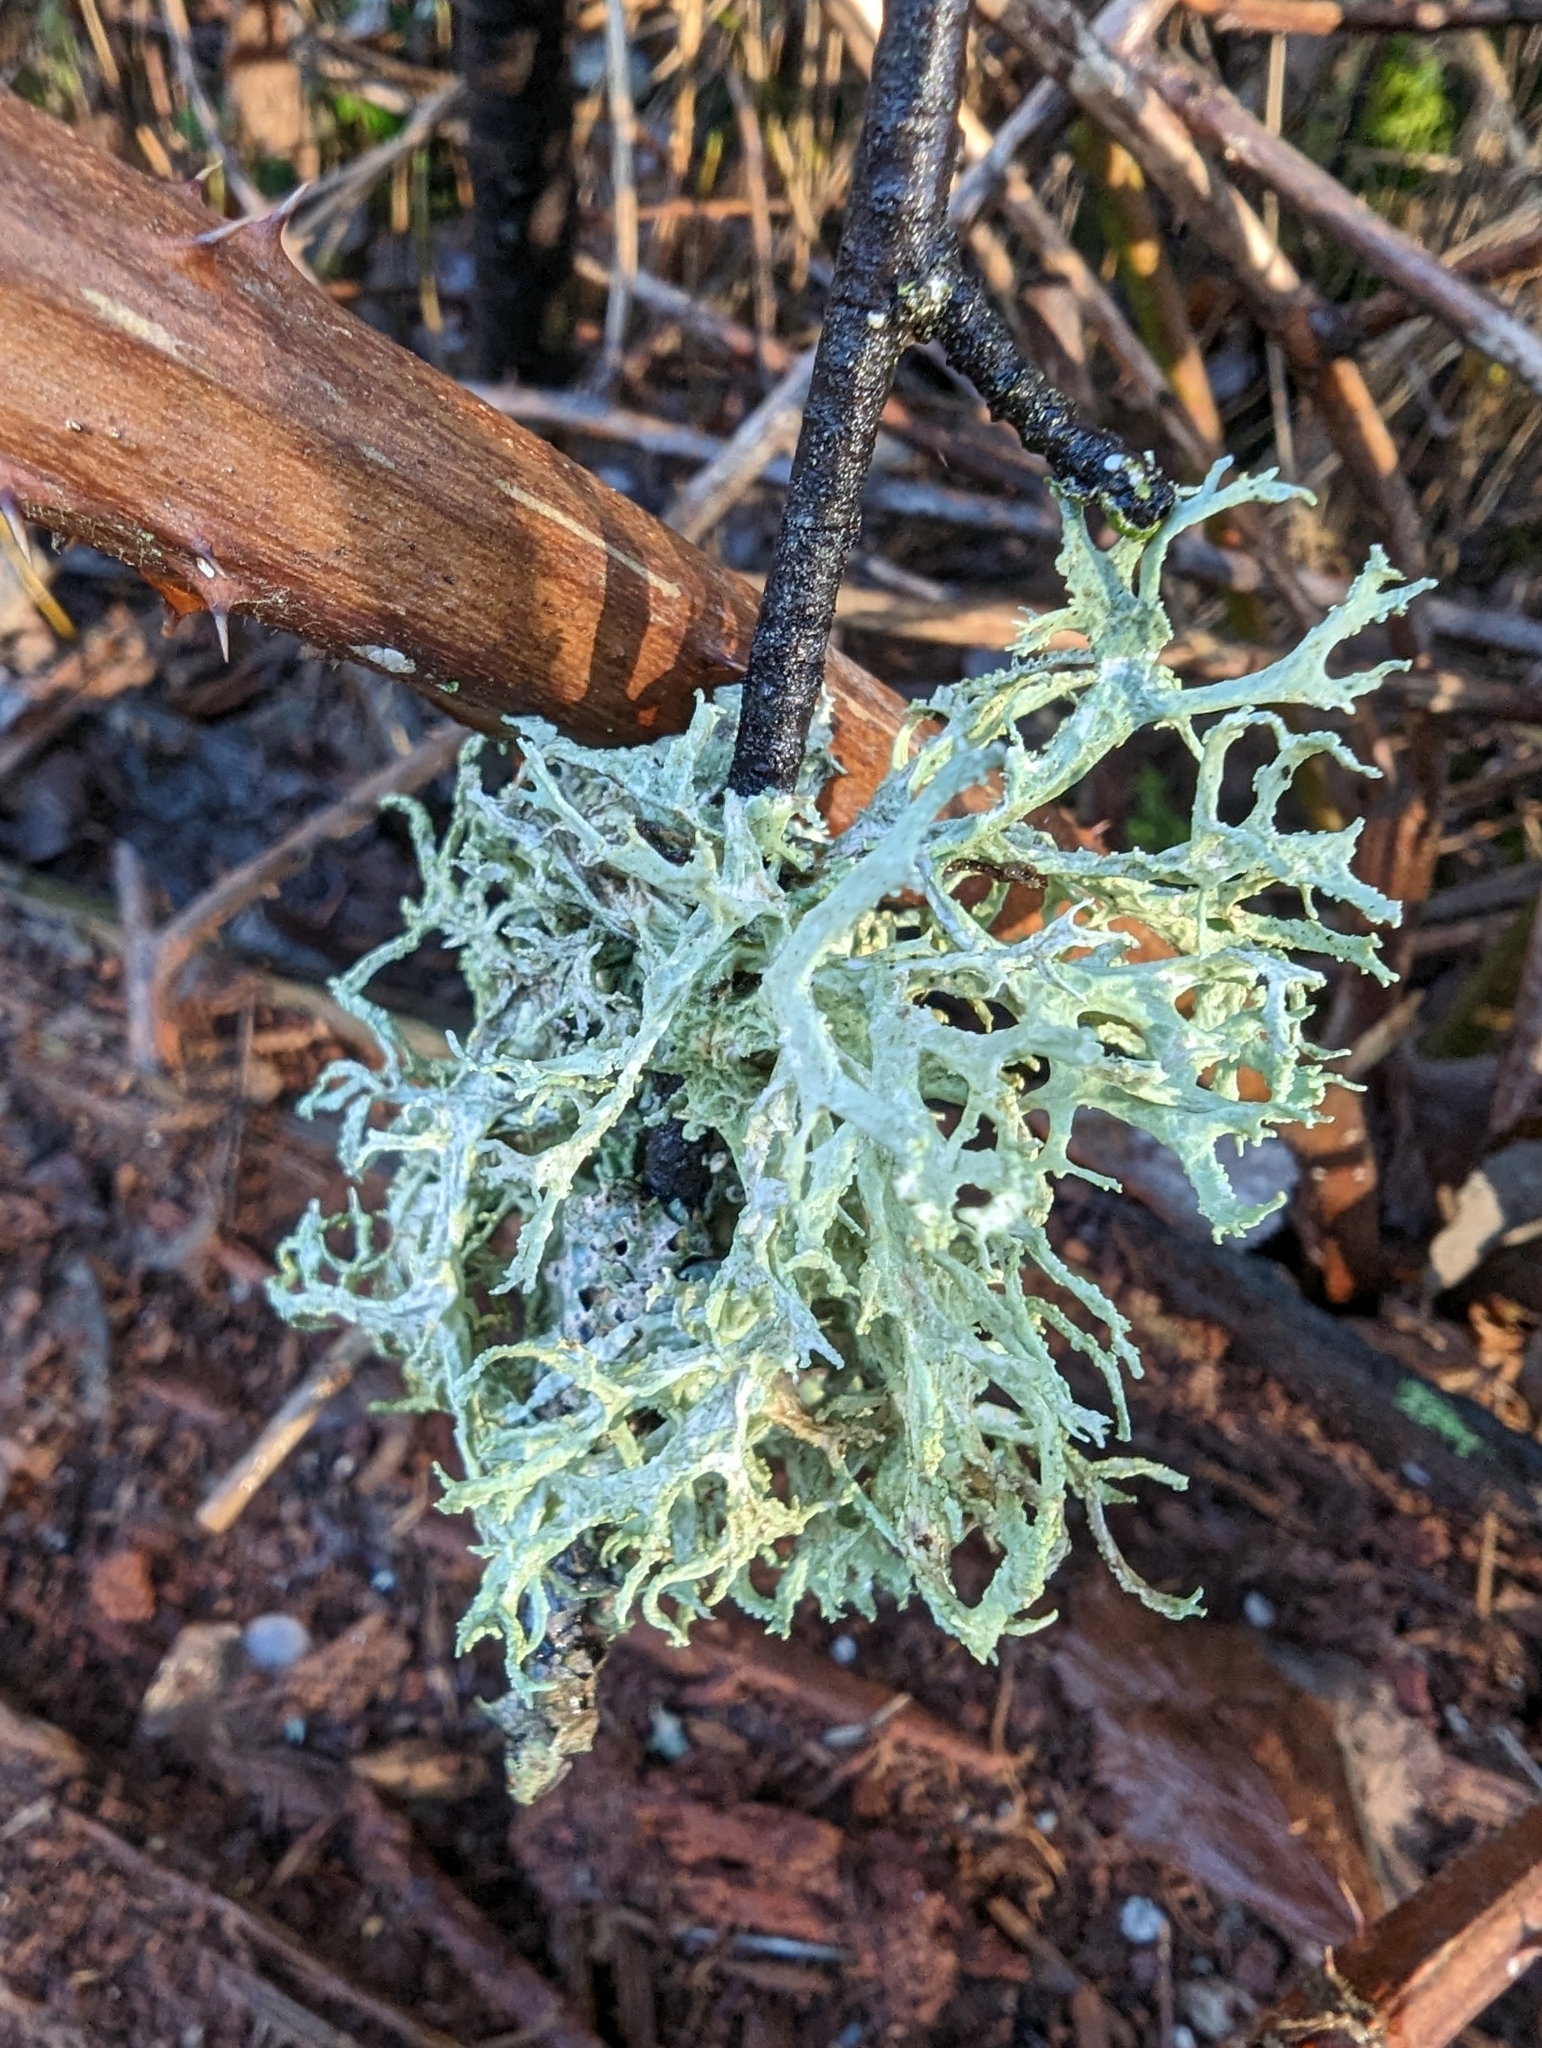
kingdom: Fungi
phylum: Ascomycota
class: Lecanoromycetes
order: Lecanorales
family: Parmeliaceae
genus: Evernia
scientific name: Evernia prunastri
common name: Oak moss
